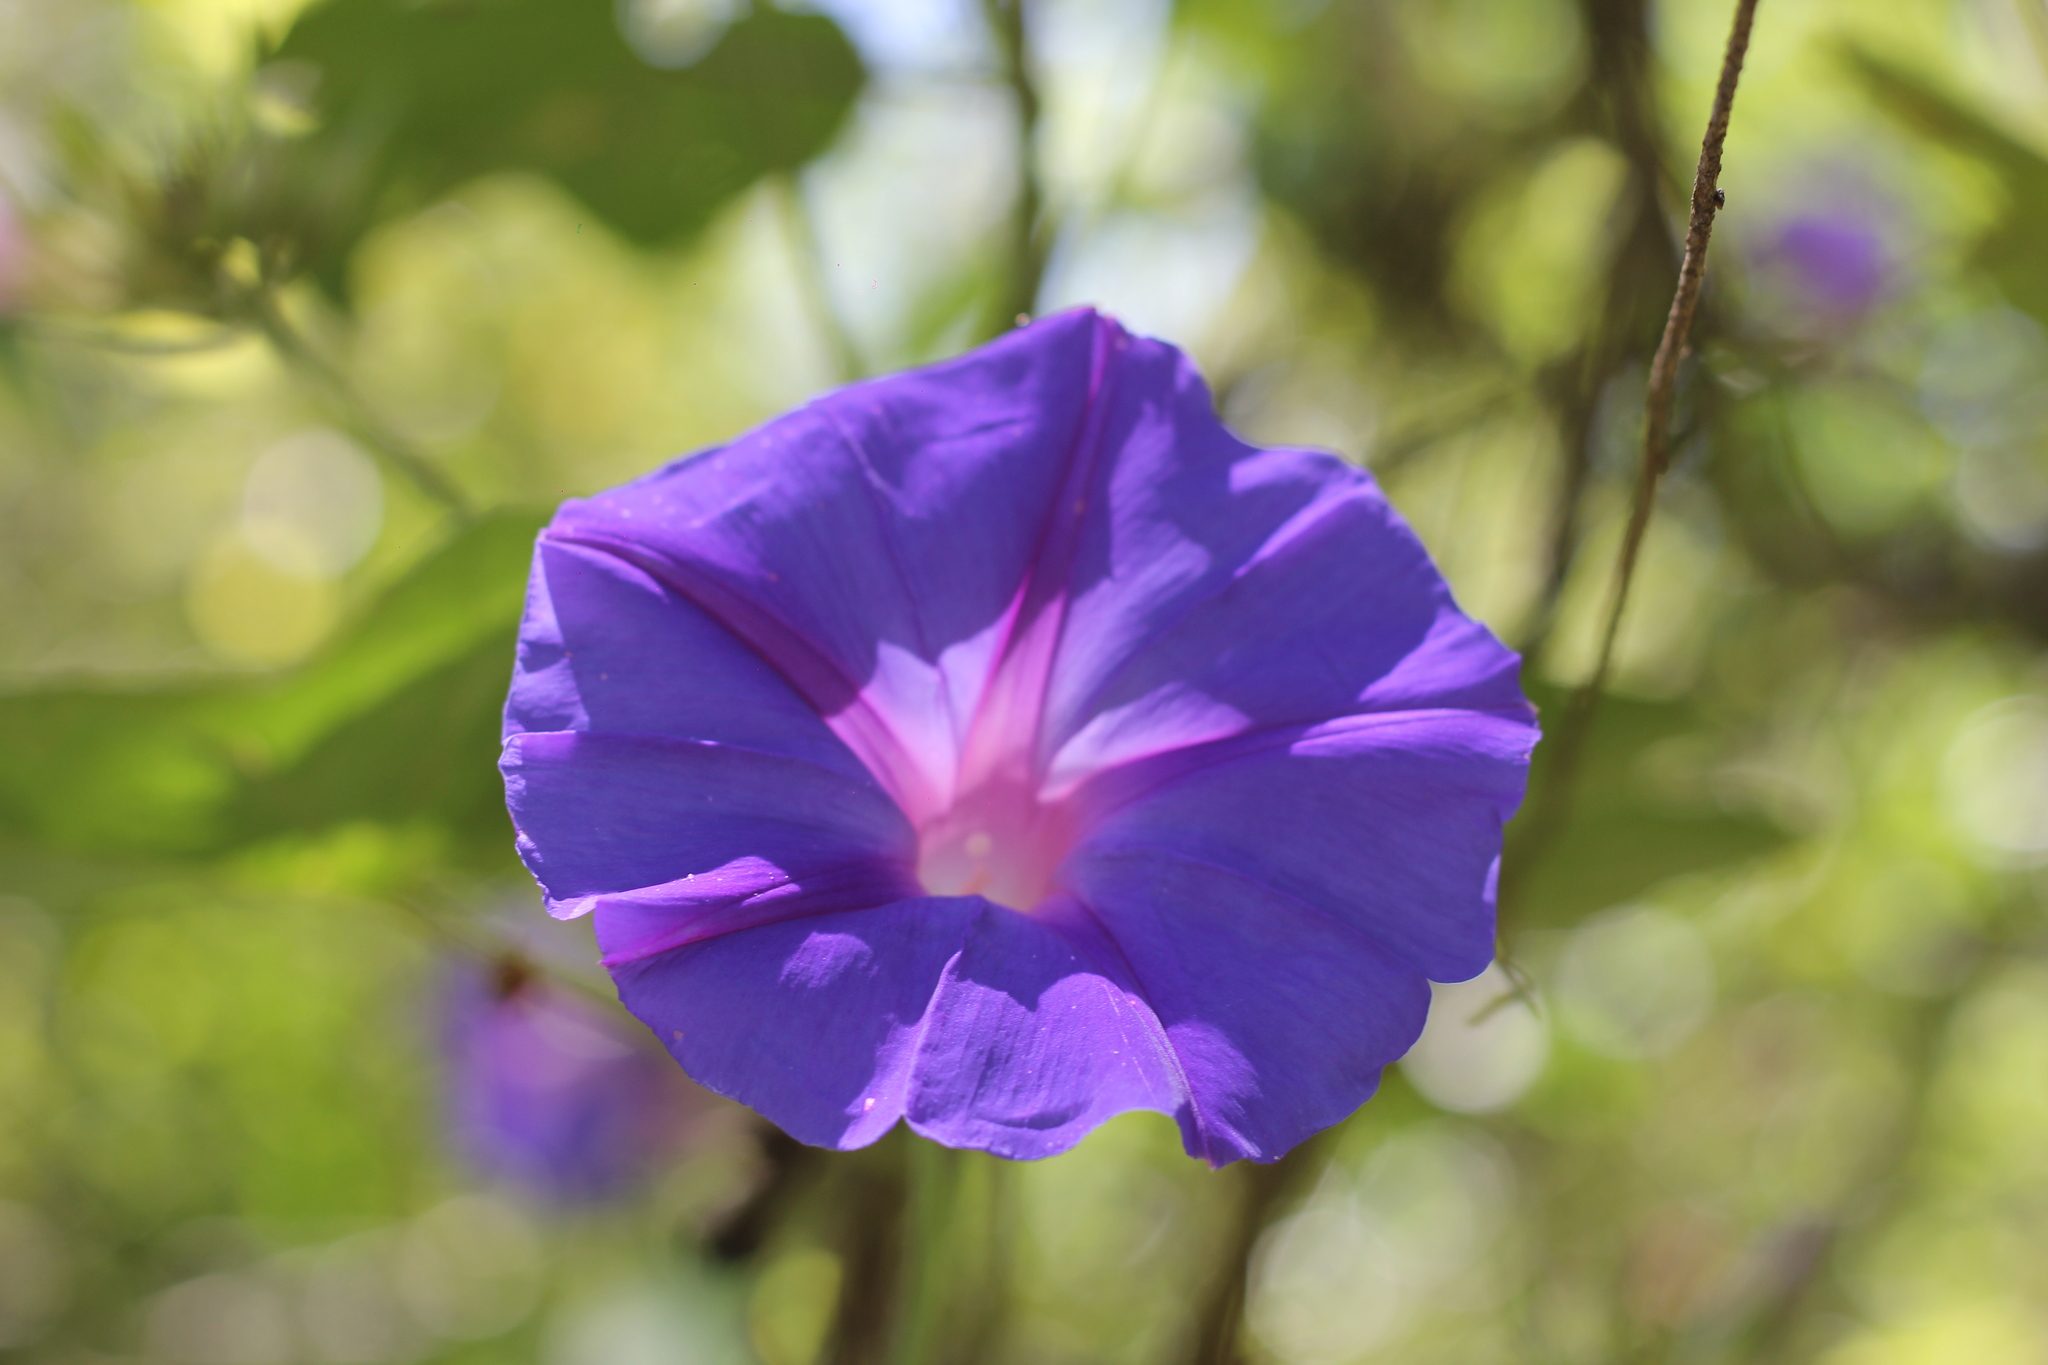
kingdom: Plantae
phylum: Tracheophyta
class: Magnoliopsida
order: Solanales
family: Convolvulaceae
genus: Ipomoea
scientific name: Ipomoea purpurea
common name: Common morning-glory
